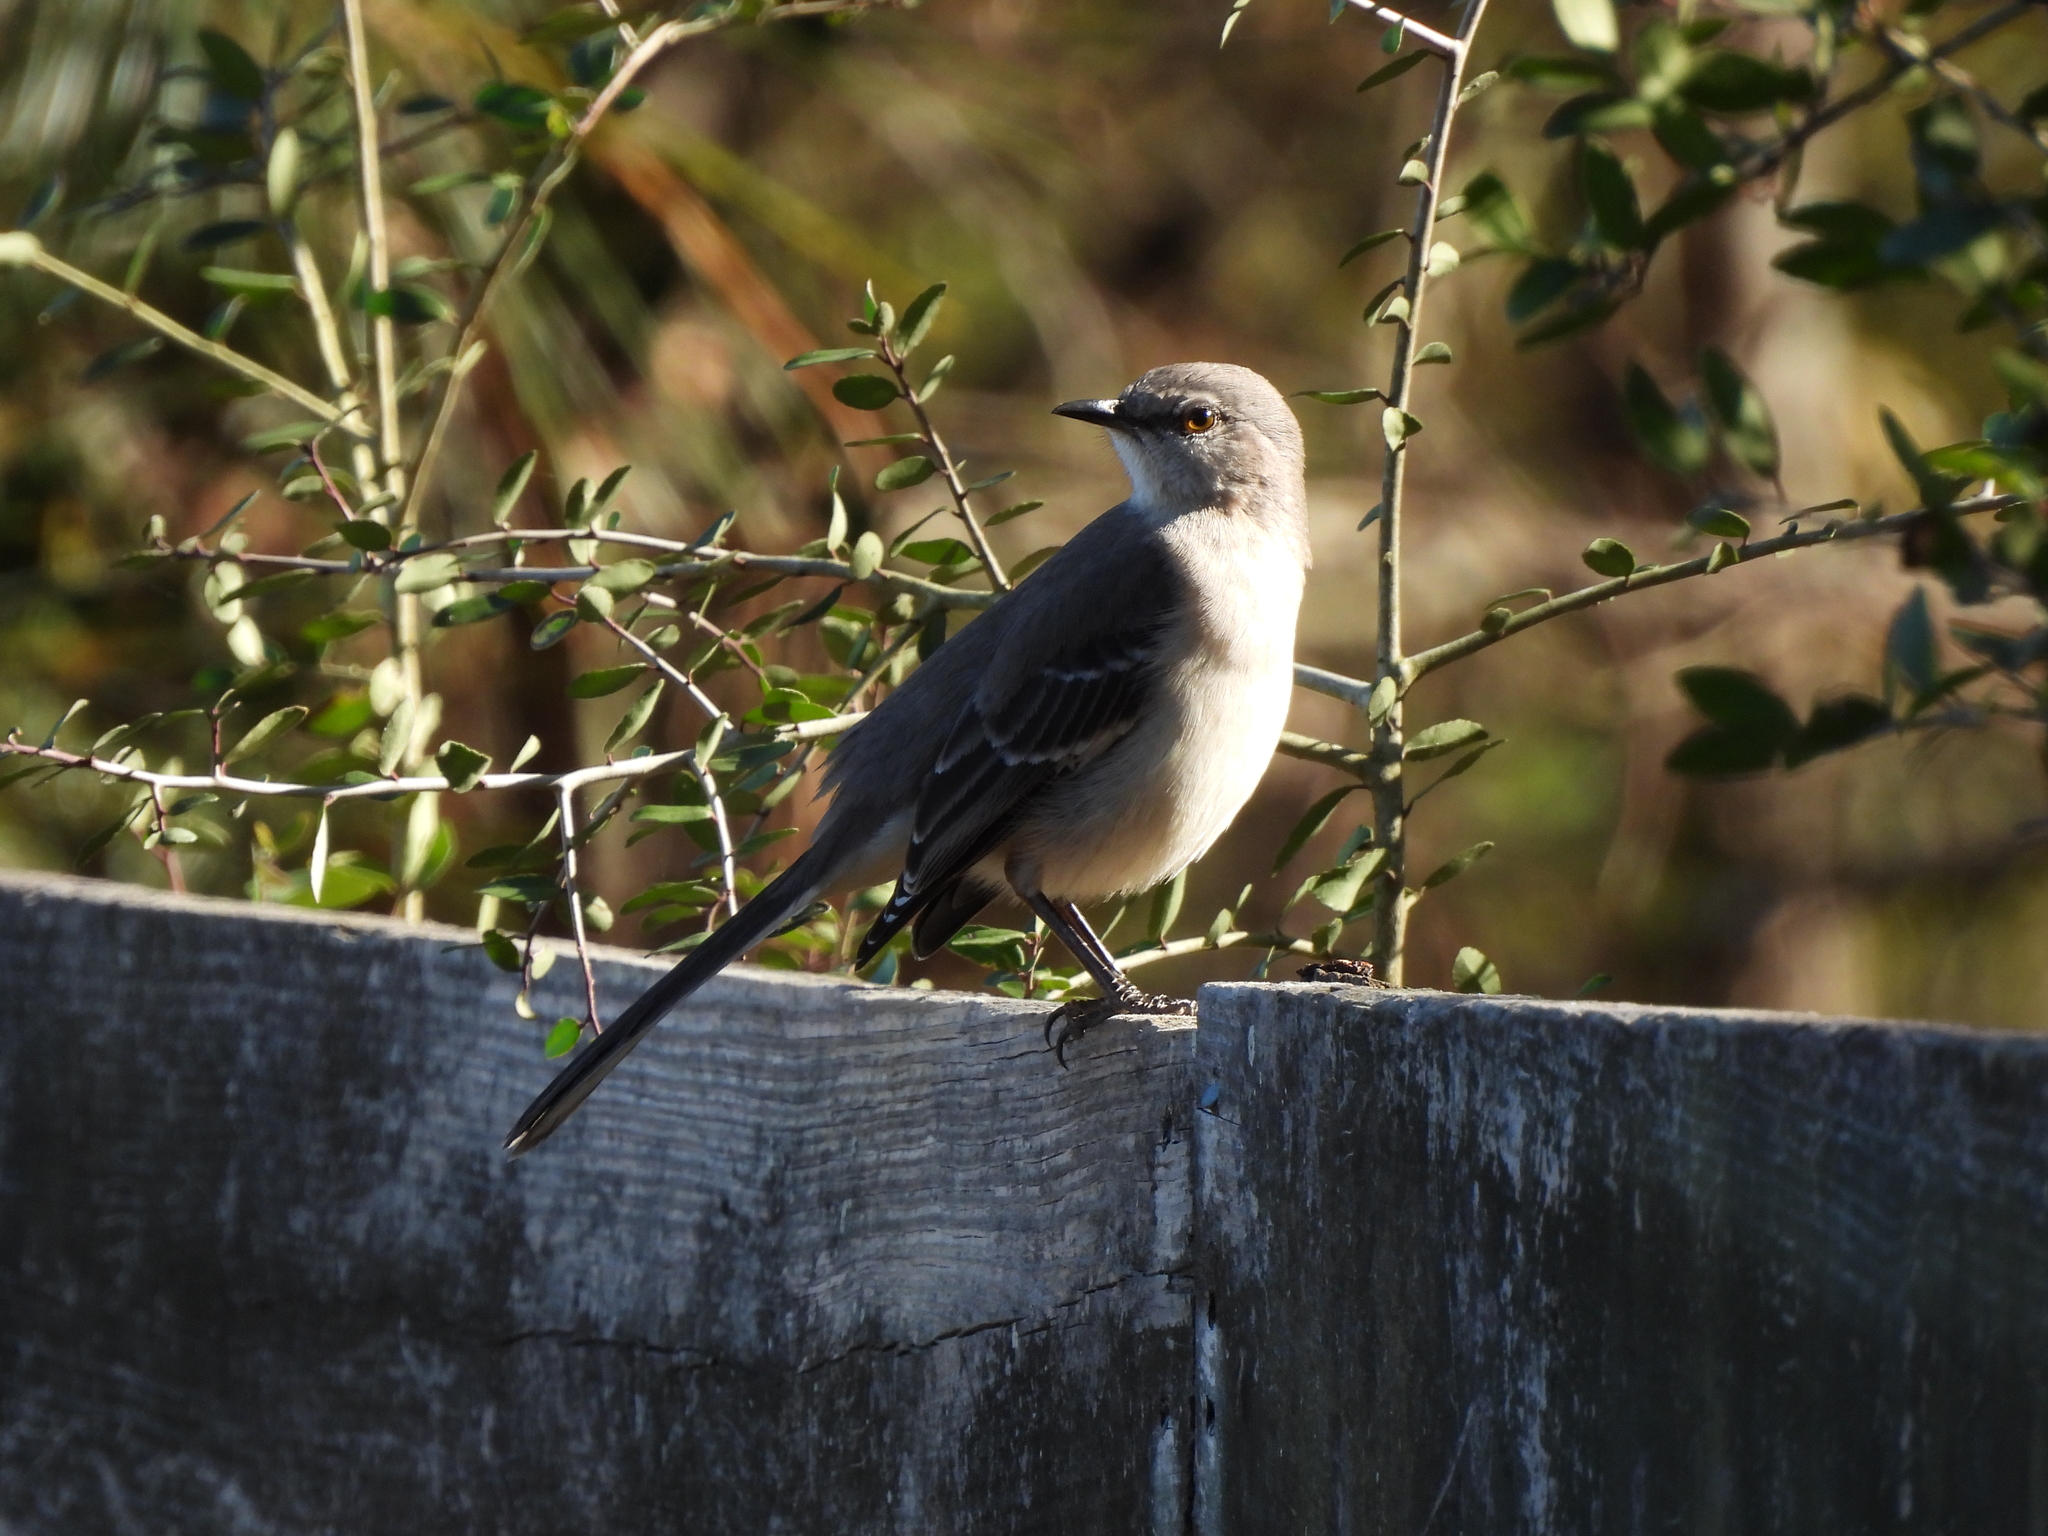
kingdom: Animalia
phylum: Chordata
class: Aves
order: Passeriformes
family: Mimidae
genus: Mimus
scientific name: Mimus polyglottos
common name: Northern mockingbird
